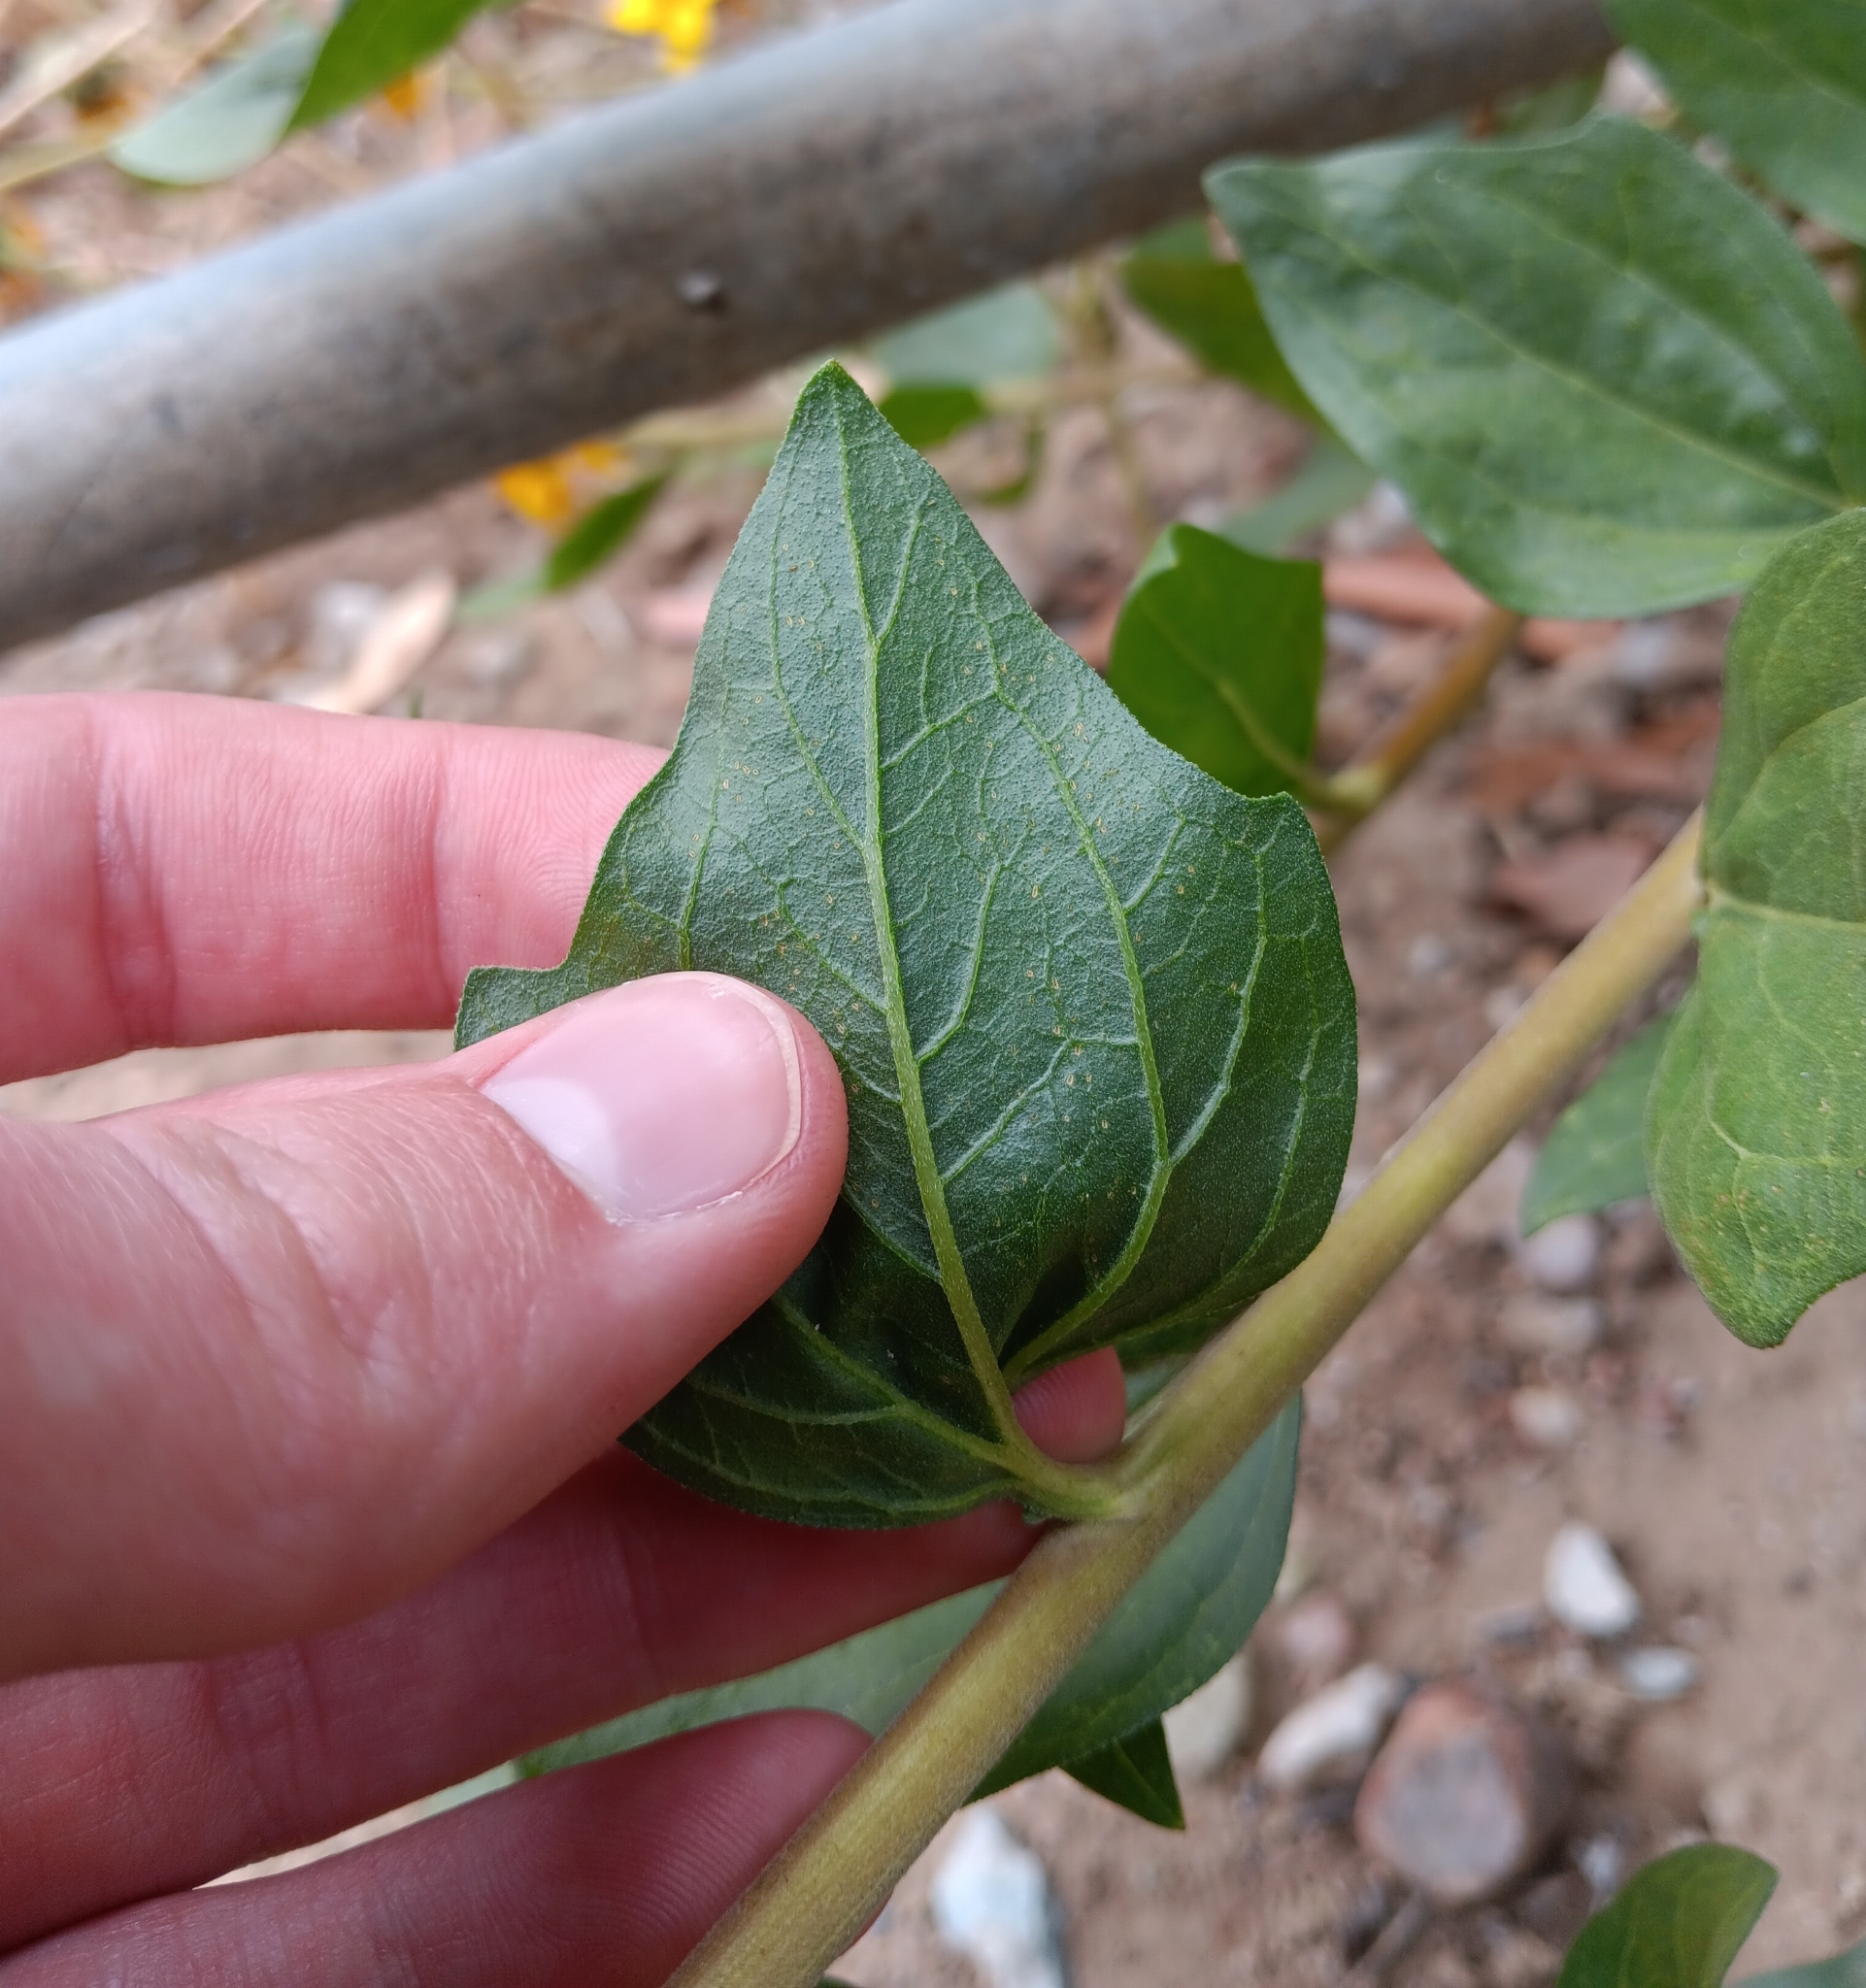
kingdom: Plantae
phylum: Tracheophyta
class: Magnoliopsida
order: Asterales
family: Asteraceae
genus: Encelia
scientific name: Encelia californica
